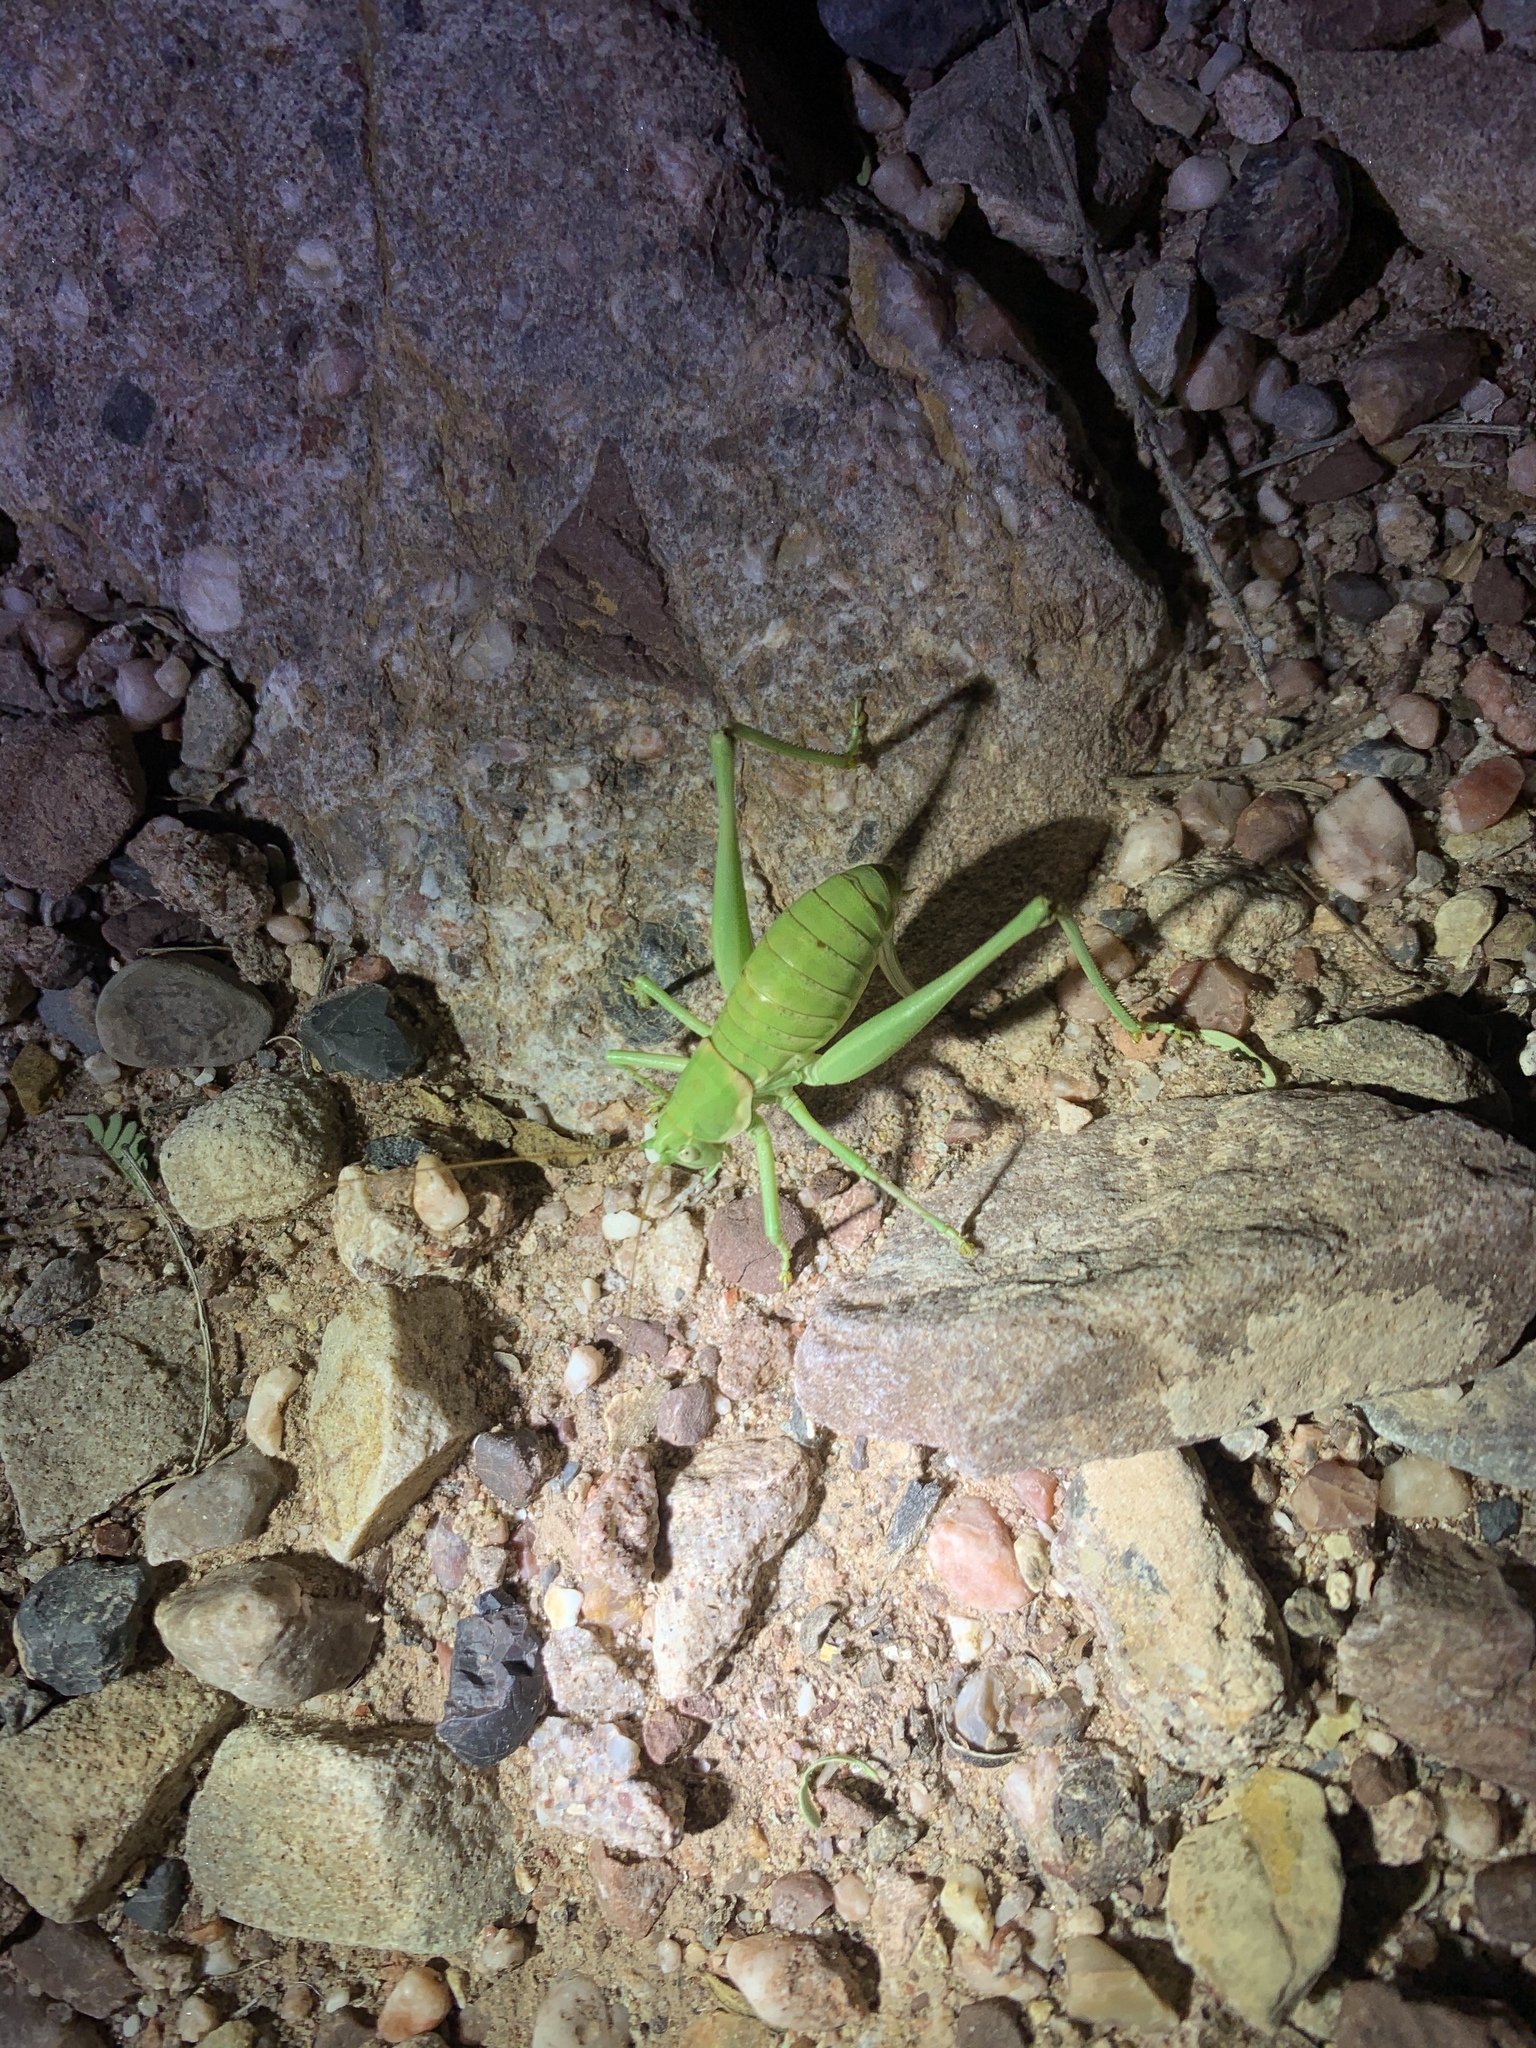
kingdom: Animalia
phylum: Arthropoda
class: Insecta
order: Orthoptera
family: Tettigoniidae
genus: Eremopedes
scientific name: Eremopedes covilleae
